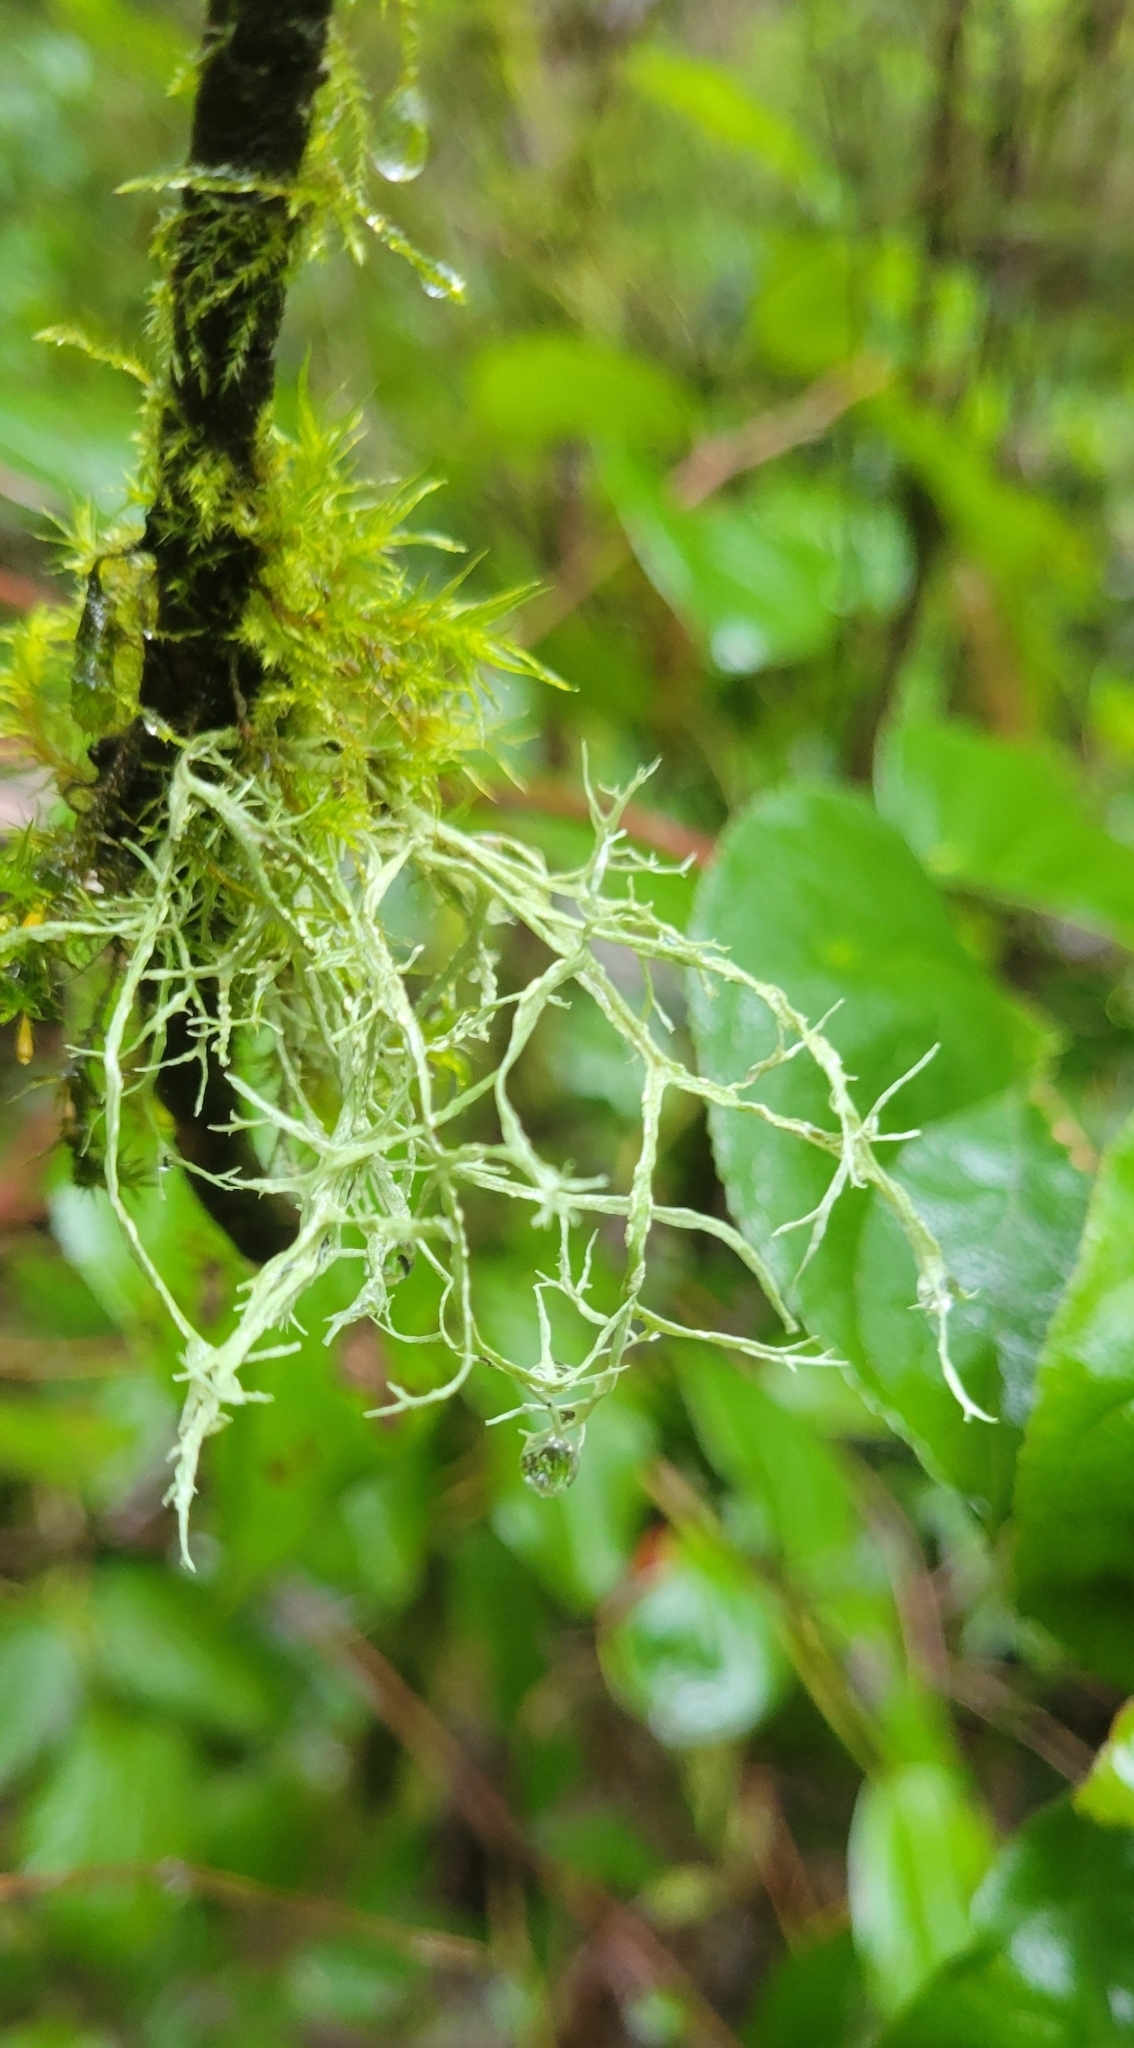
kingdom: Fungi
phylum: Ascomycota
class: Lecanoromycetes
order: Lecanorales
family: Ramalinaceae
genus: Ramalina
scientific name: Ramalina farinacea
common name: Farinose cartilage lichen
